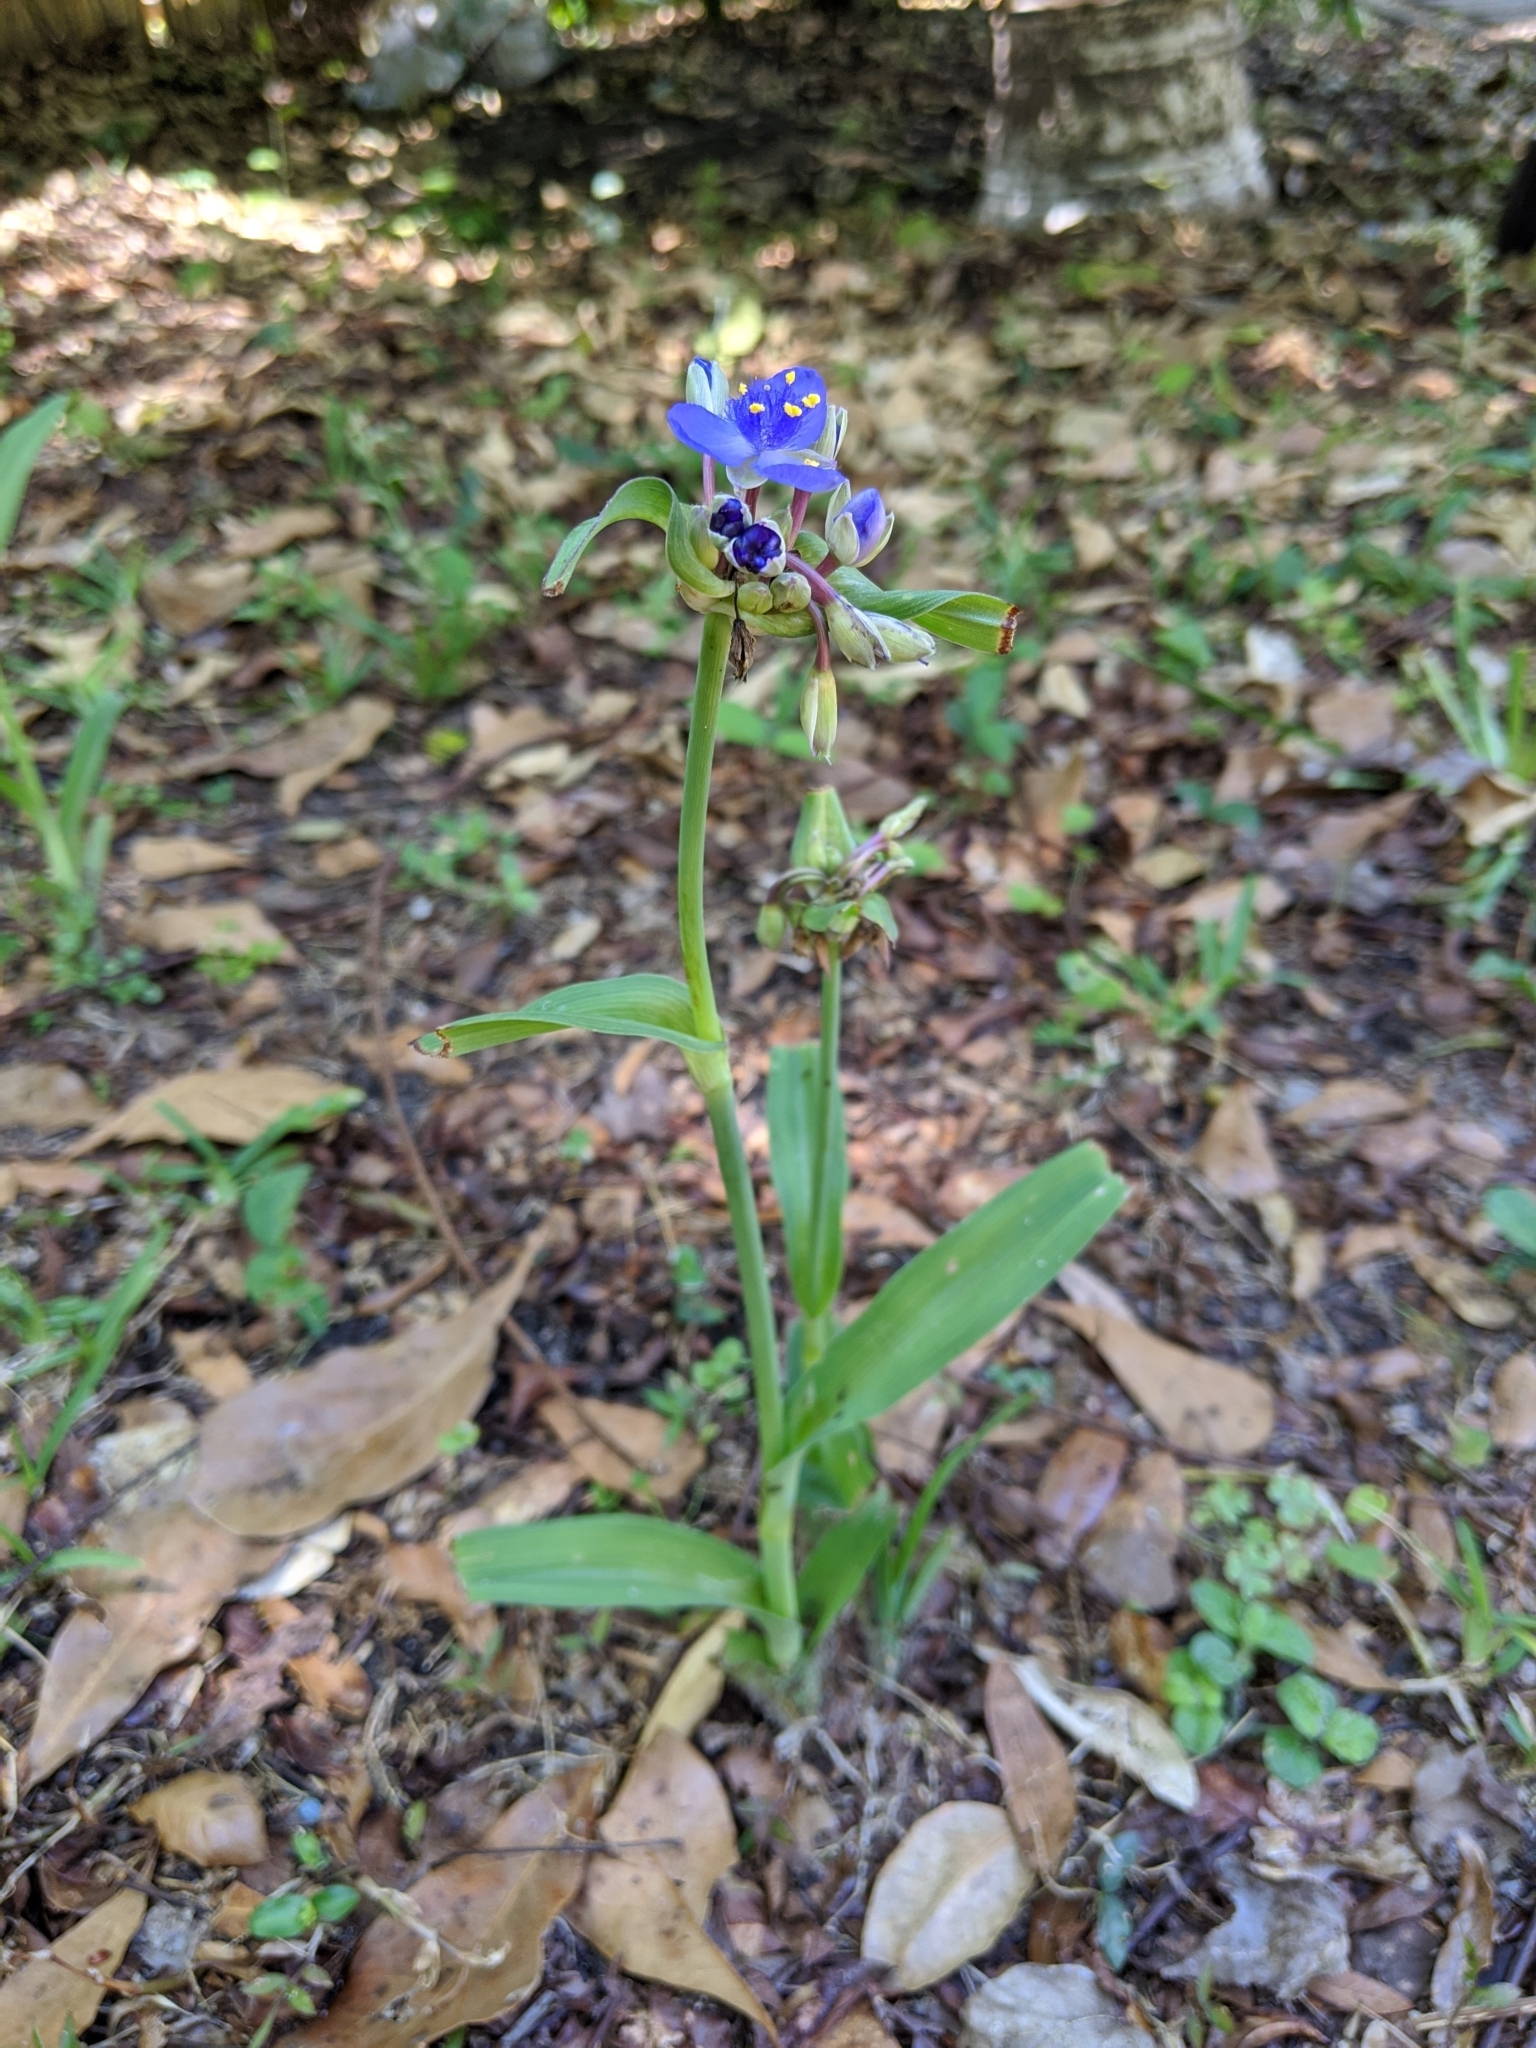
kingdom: Plantae
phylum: Tracheophyta
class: Liliopsida
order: Commelinales
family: Commelinaceae
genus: Tradescantia
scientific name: Tradescantia ohiensis
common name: Ohio spiderwort
